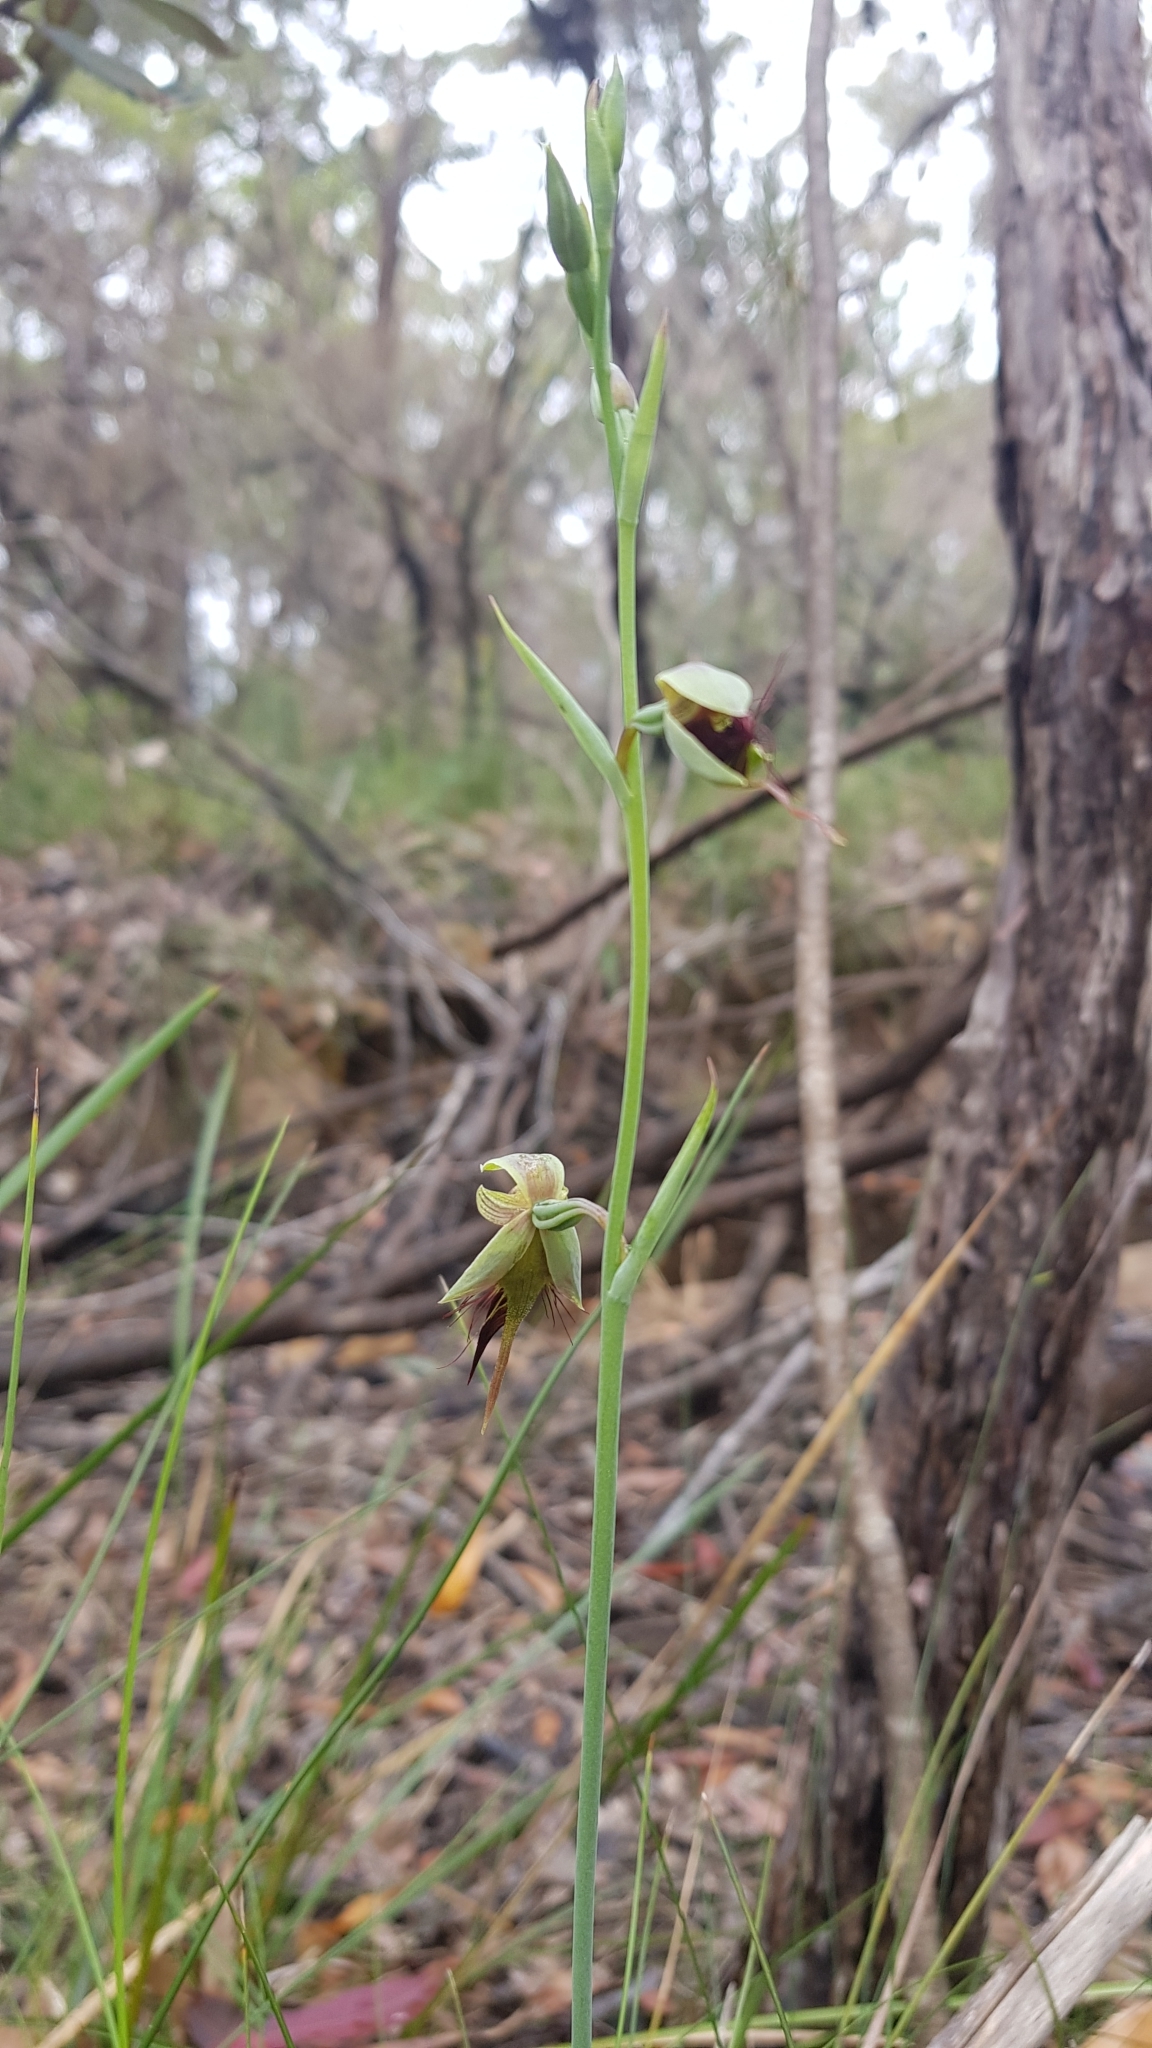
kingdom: Plantae
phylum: Tracheophyta
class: Liliopsida
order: Asparagales
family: Orchidaceae
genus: Calochilus
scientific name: Calochilus paludosus
